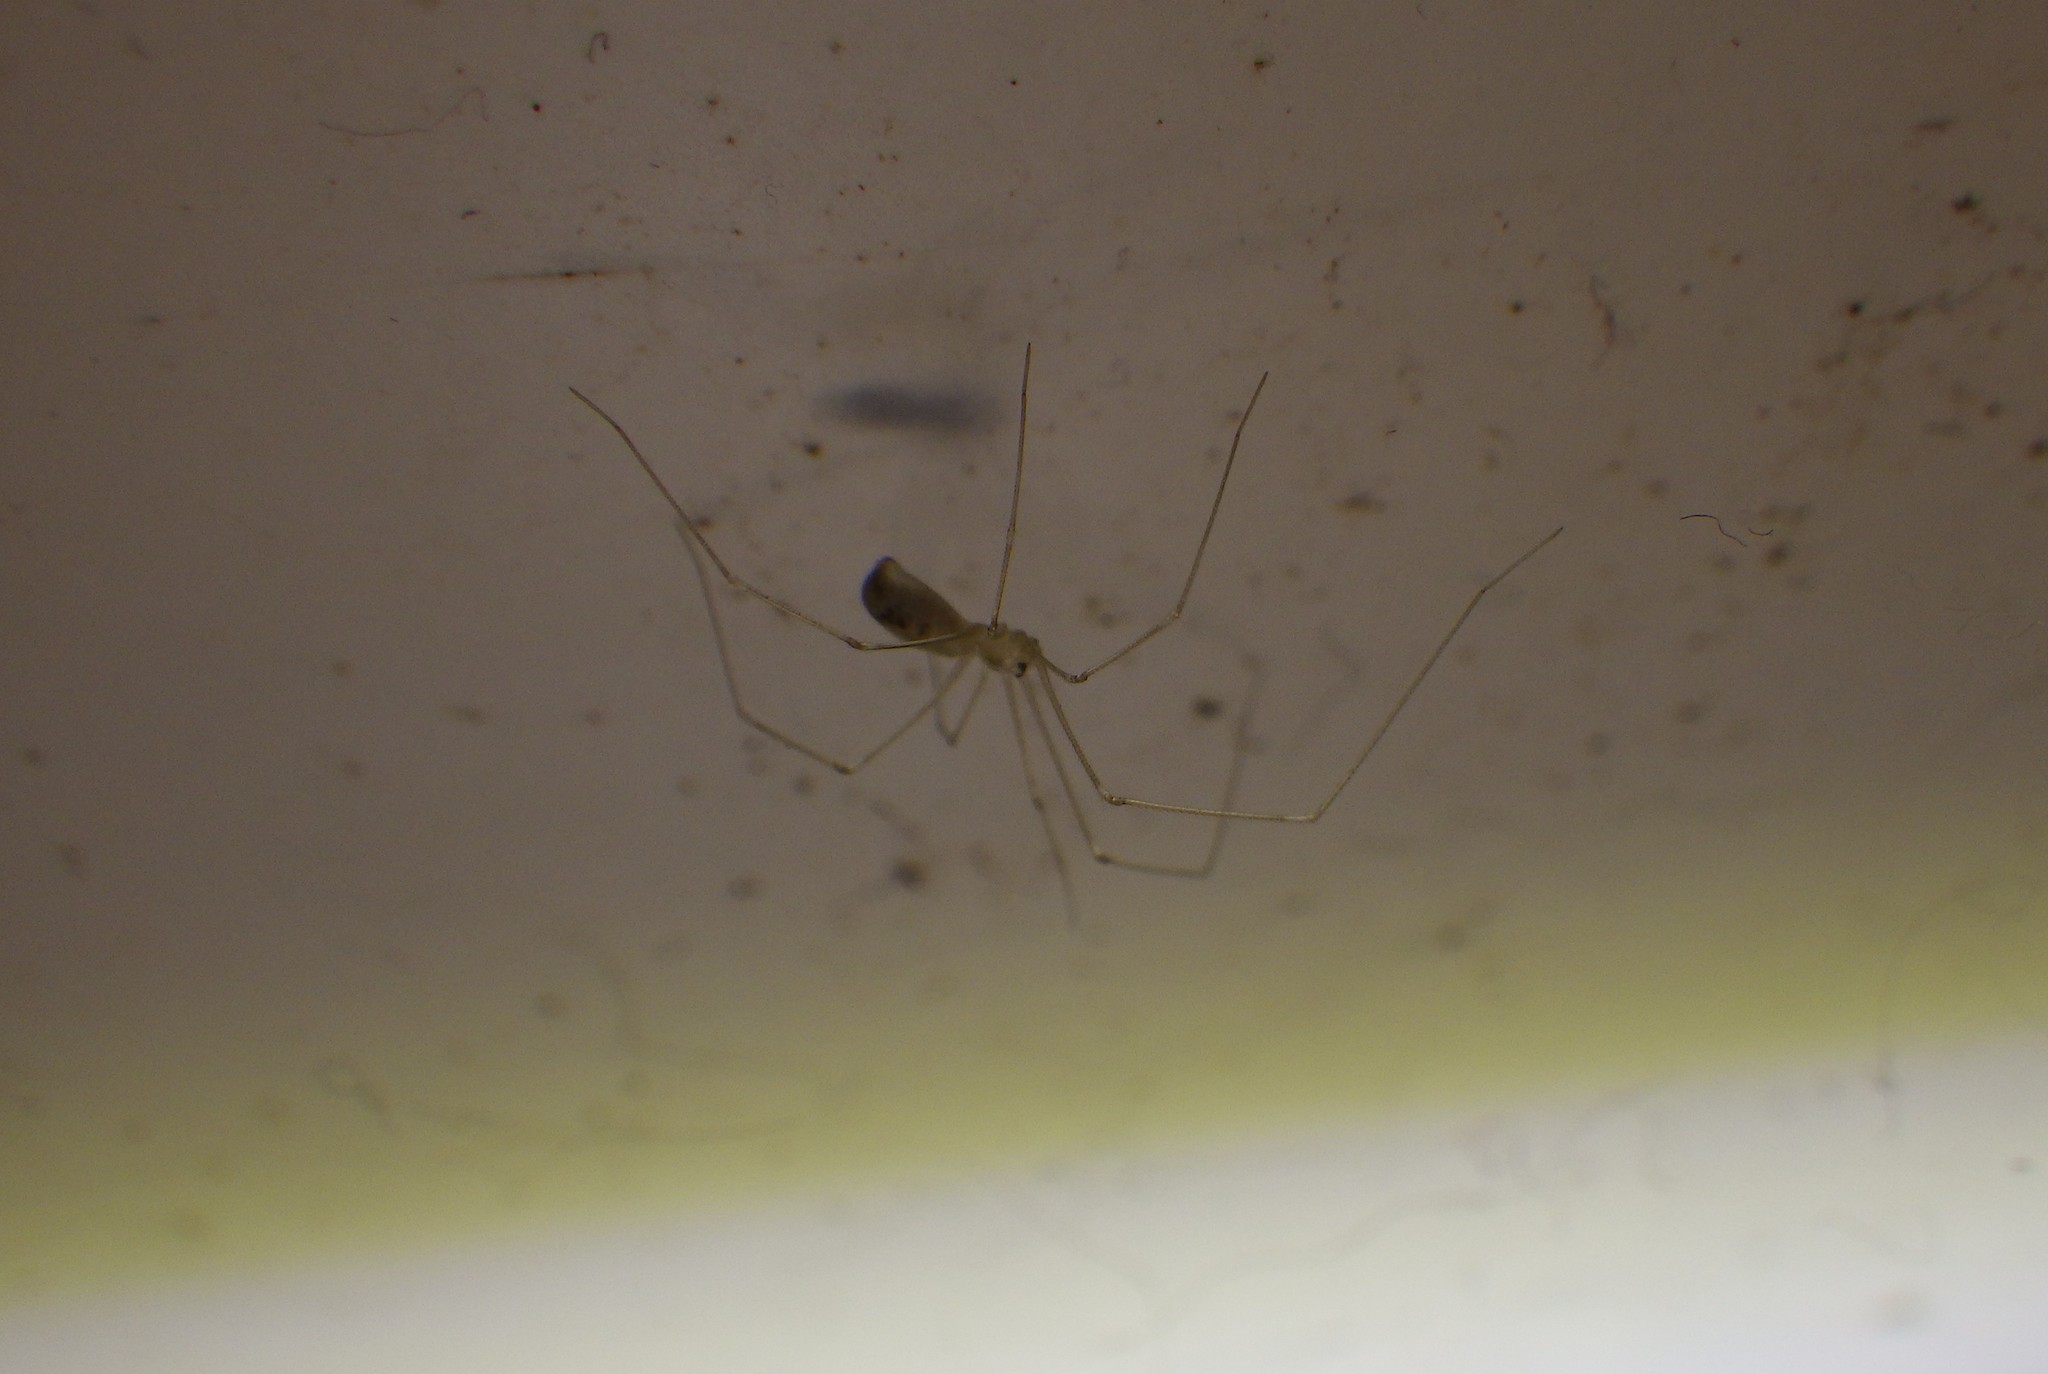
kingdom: Animalia
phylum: Arthropoda
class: Arachnida
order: Araneae
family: Pholcidae
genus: Pholcus
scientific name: Pholcus phalangioides
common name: Longbodied cellar spider
